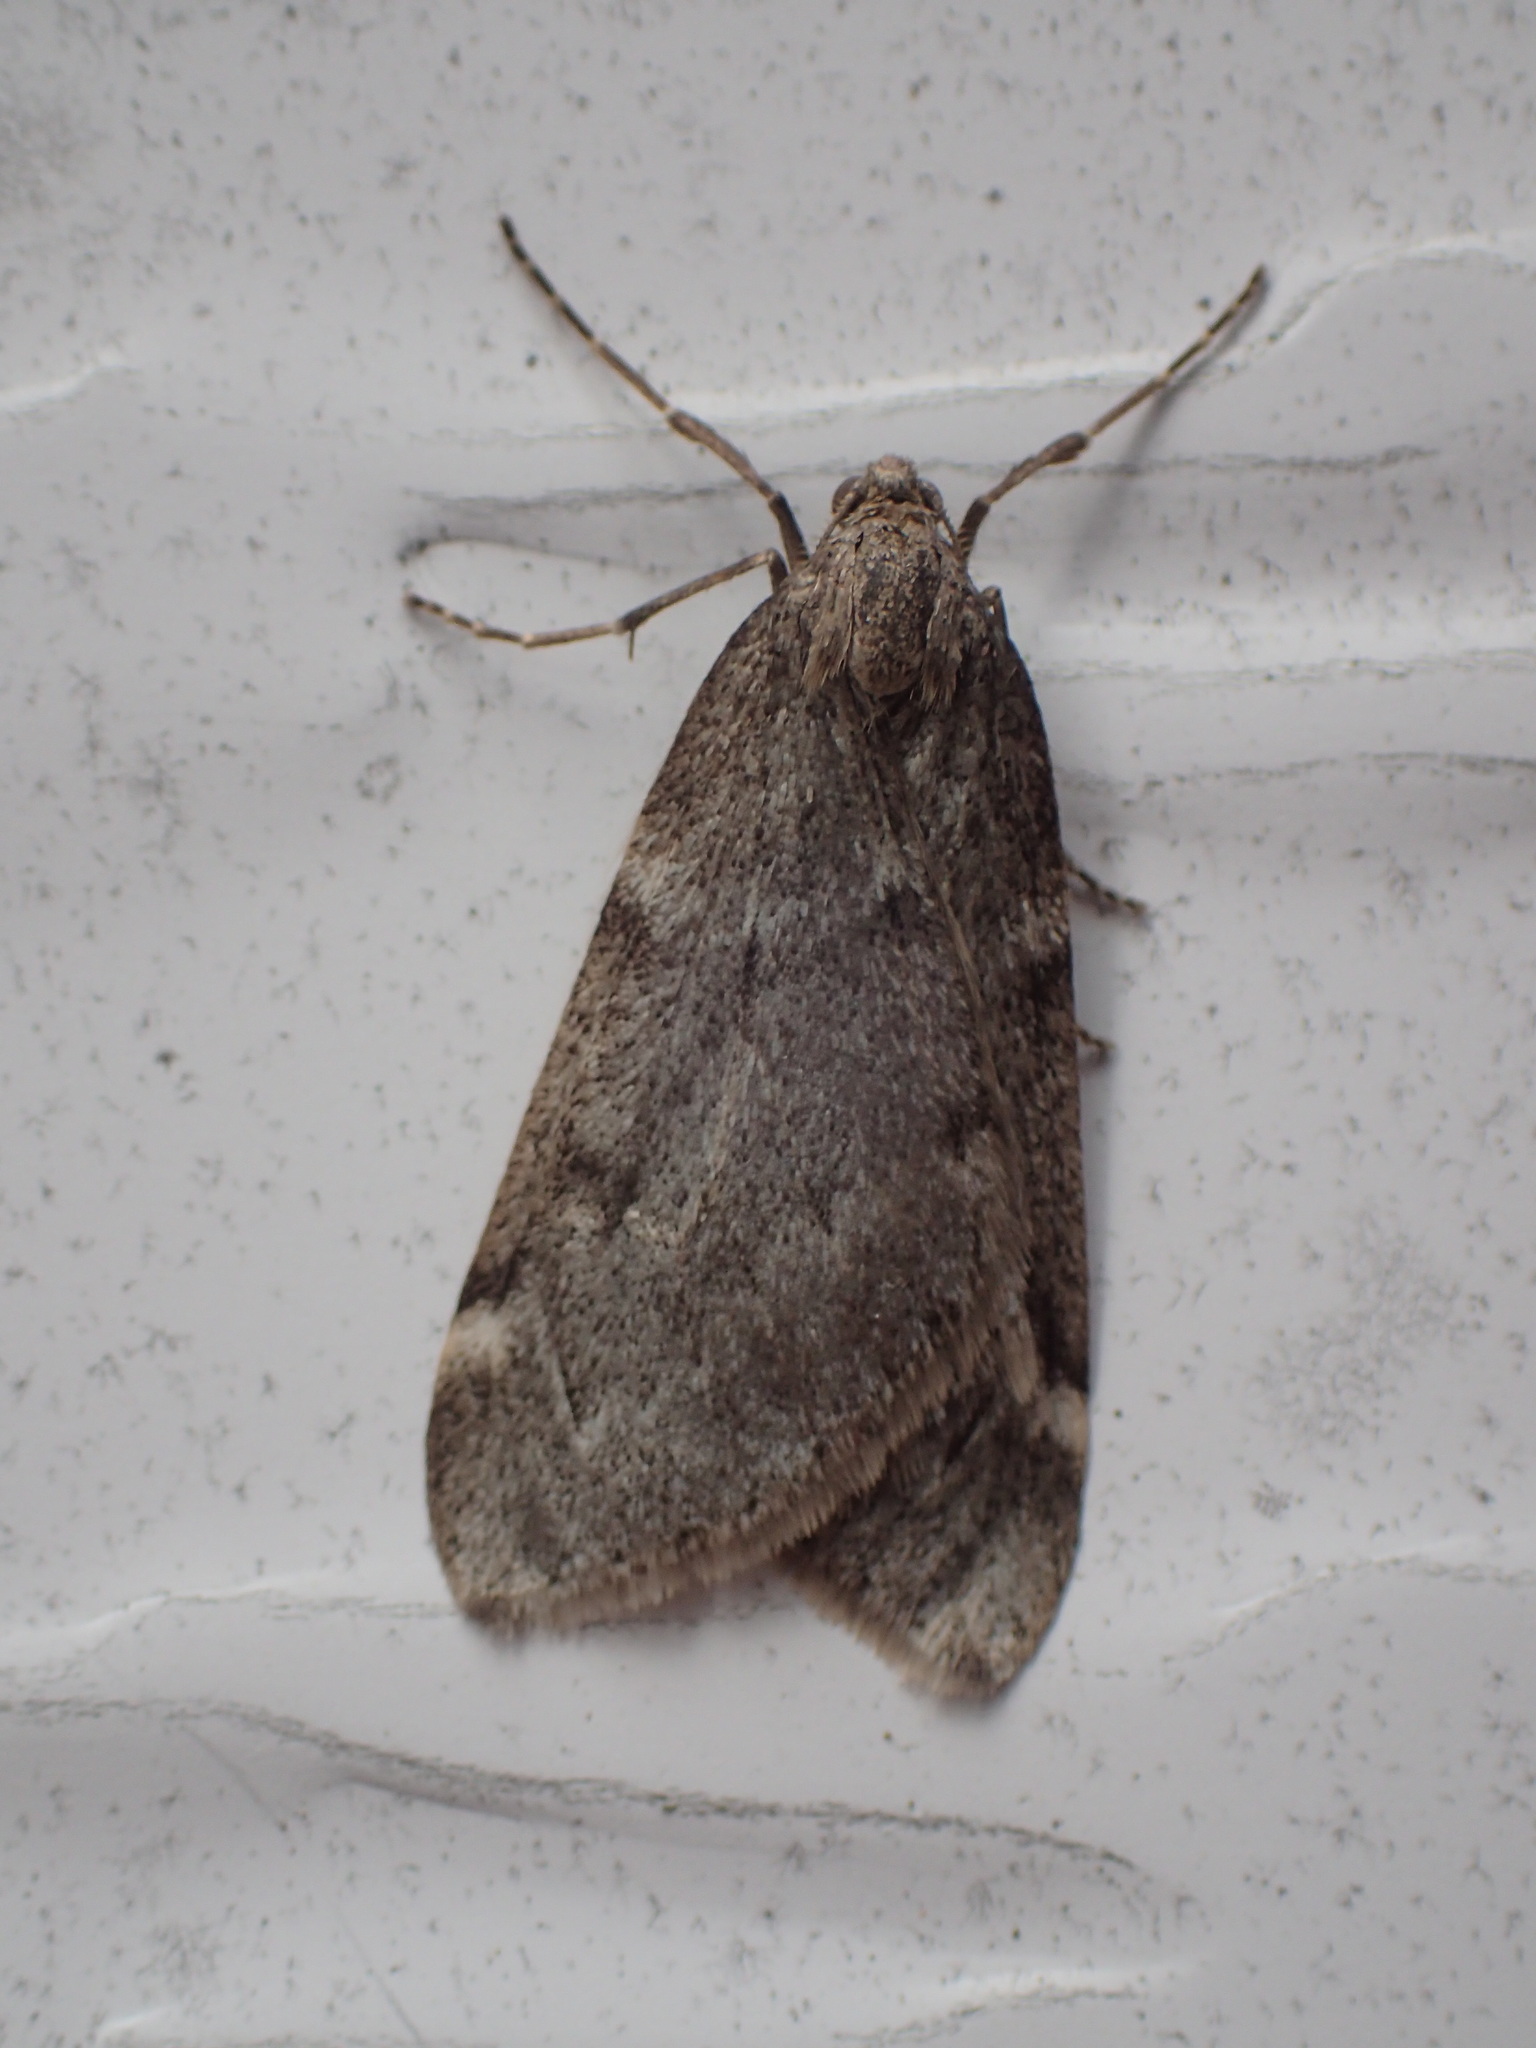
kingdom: Animalia
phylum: Arthropoda
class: Insecta
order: Lepidoptera
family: Geometridae
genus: Alsophila
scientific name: Alsophila pometaria
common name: Fall cankerworm
